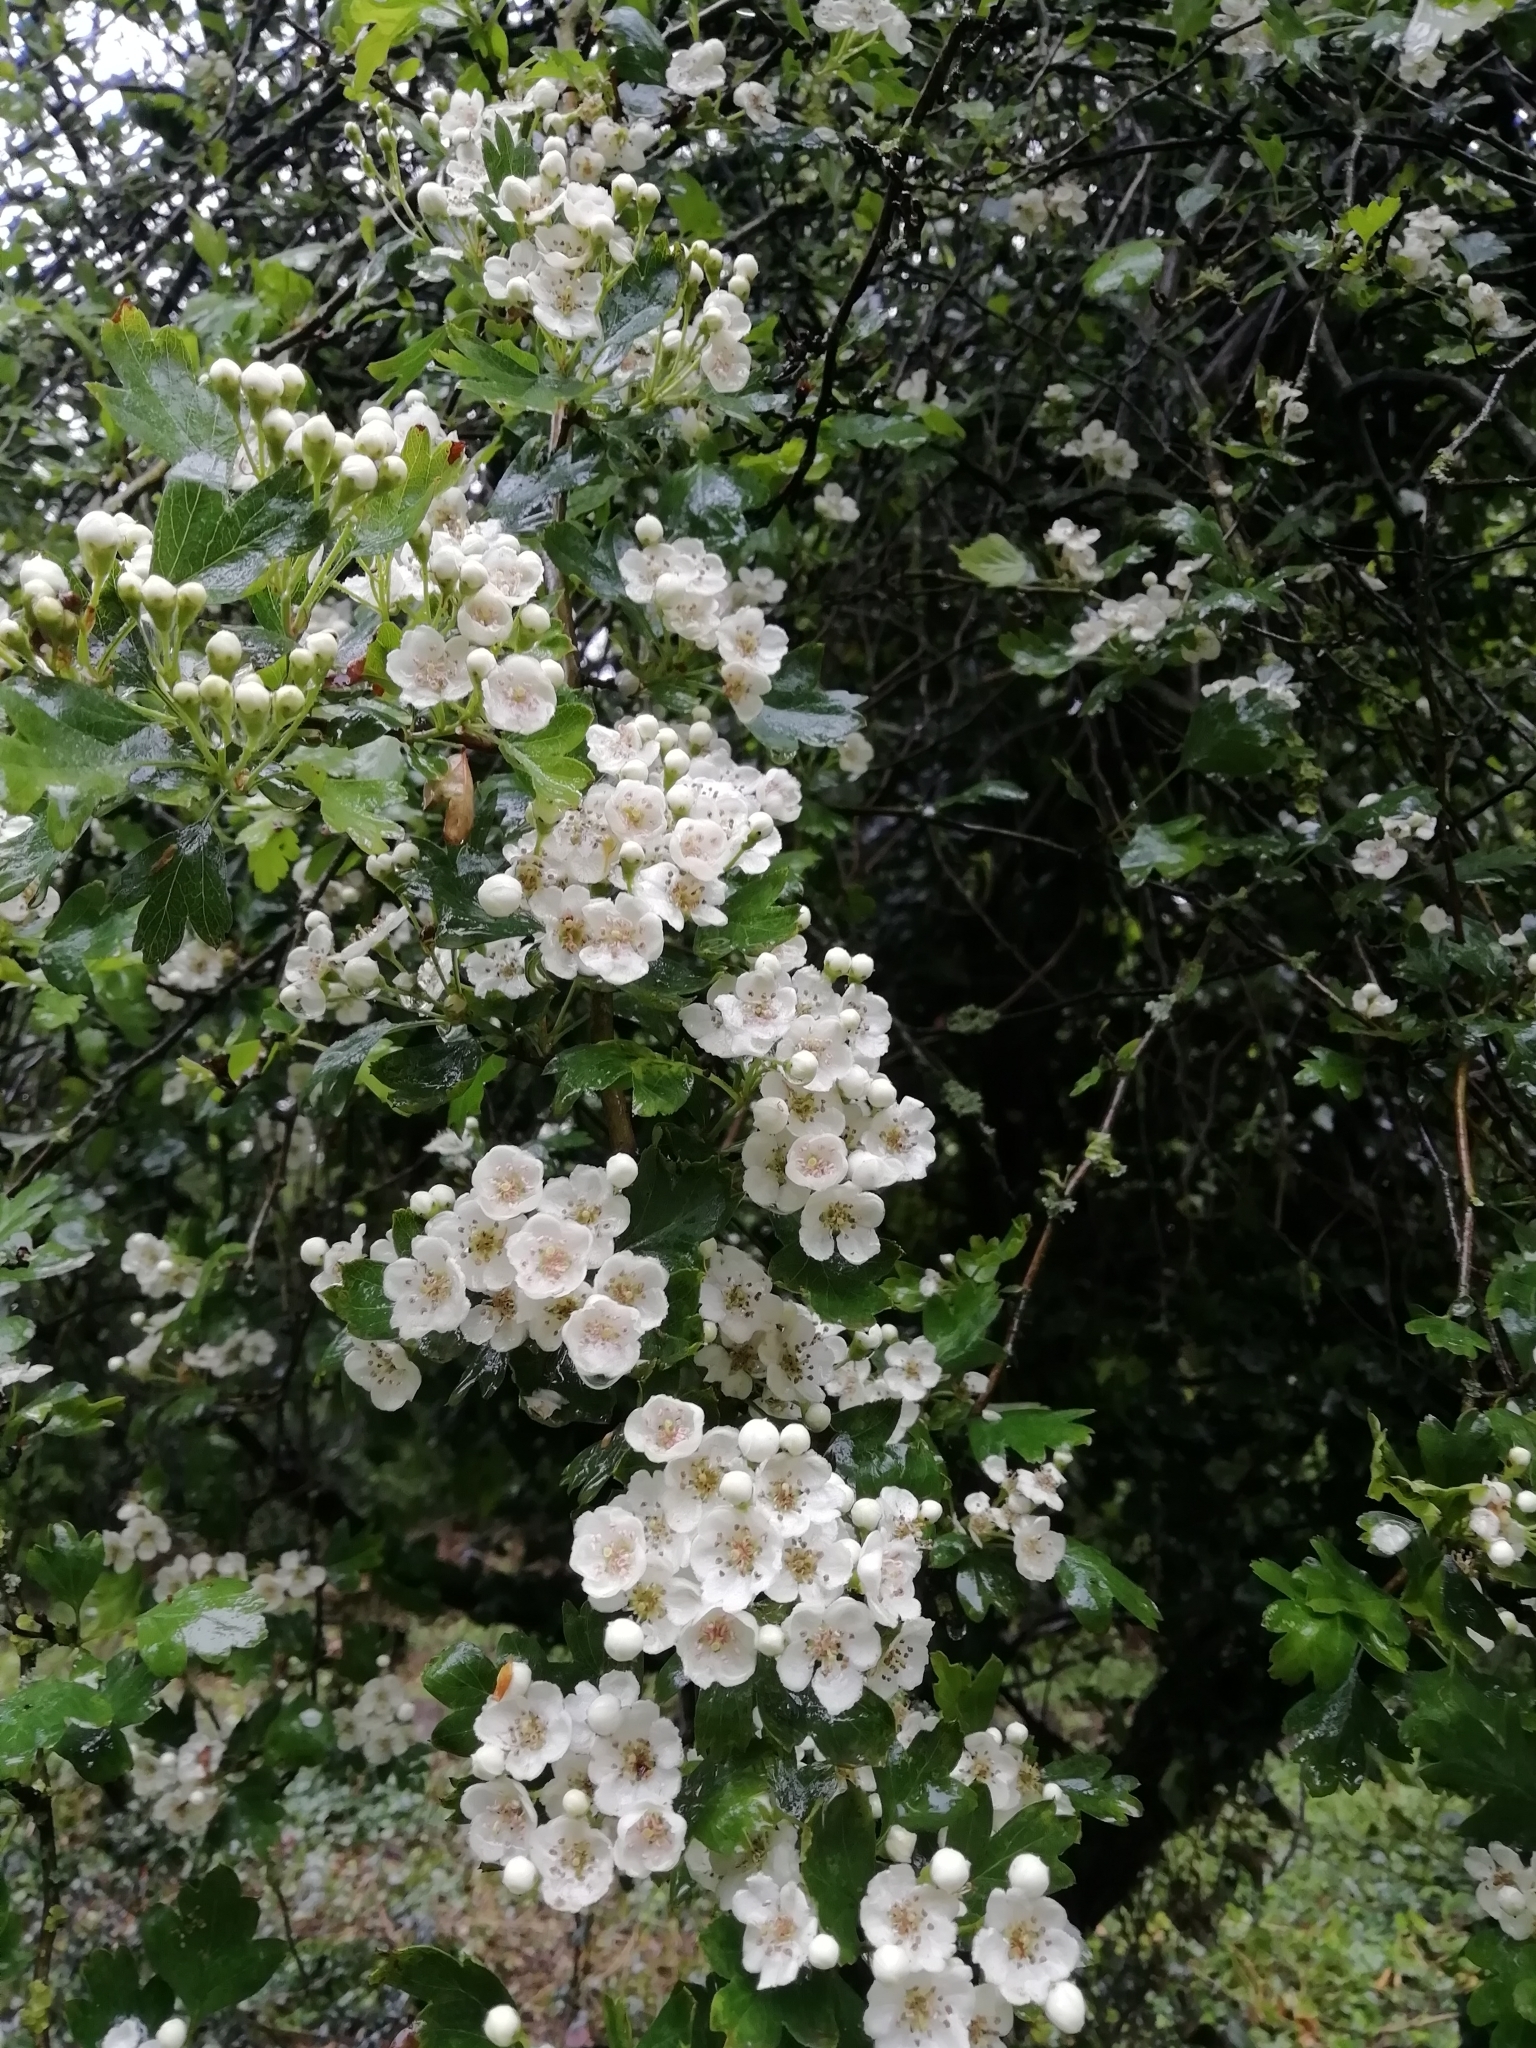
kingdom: Plantae
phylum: Tracheophyta
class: Magnoliopsida
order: Rosales
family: Rosaceae
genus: Crataegus
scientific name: Crataegus monogyna
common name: Hawthorn
